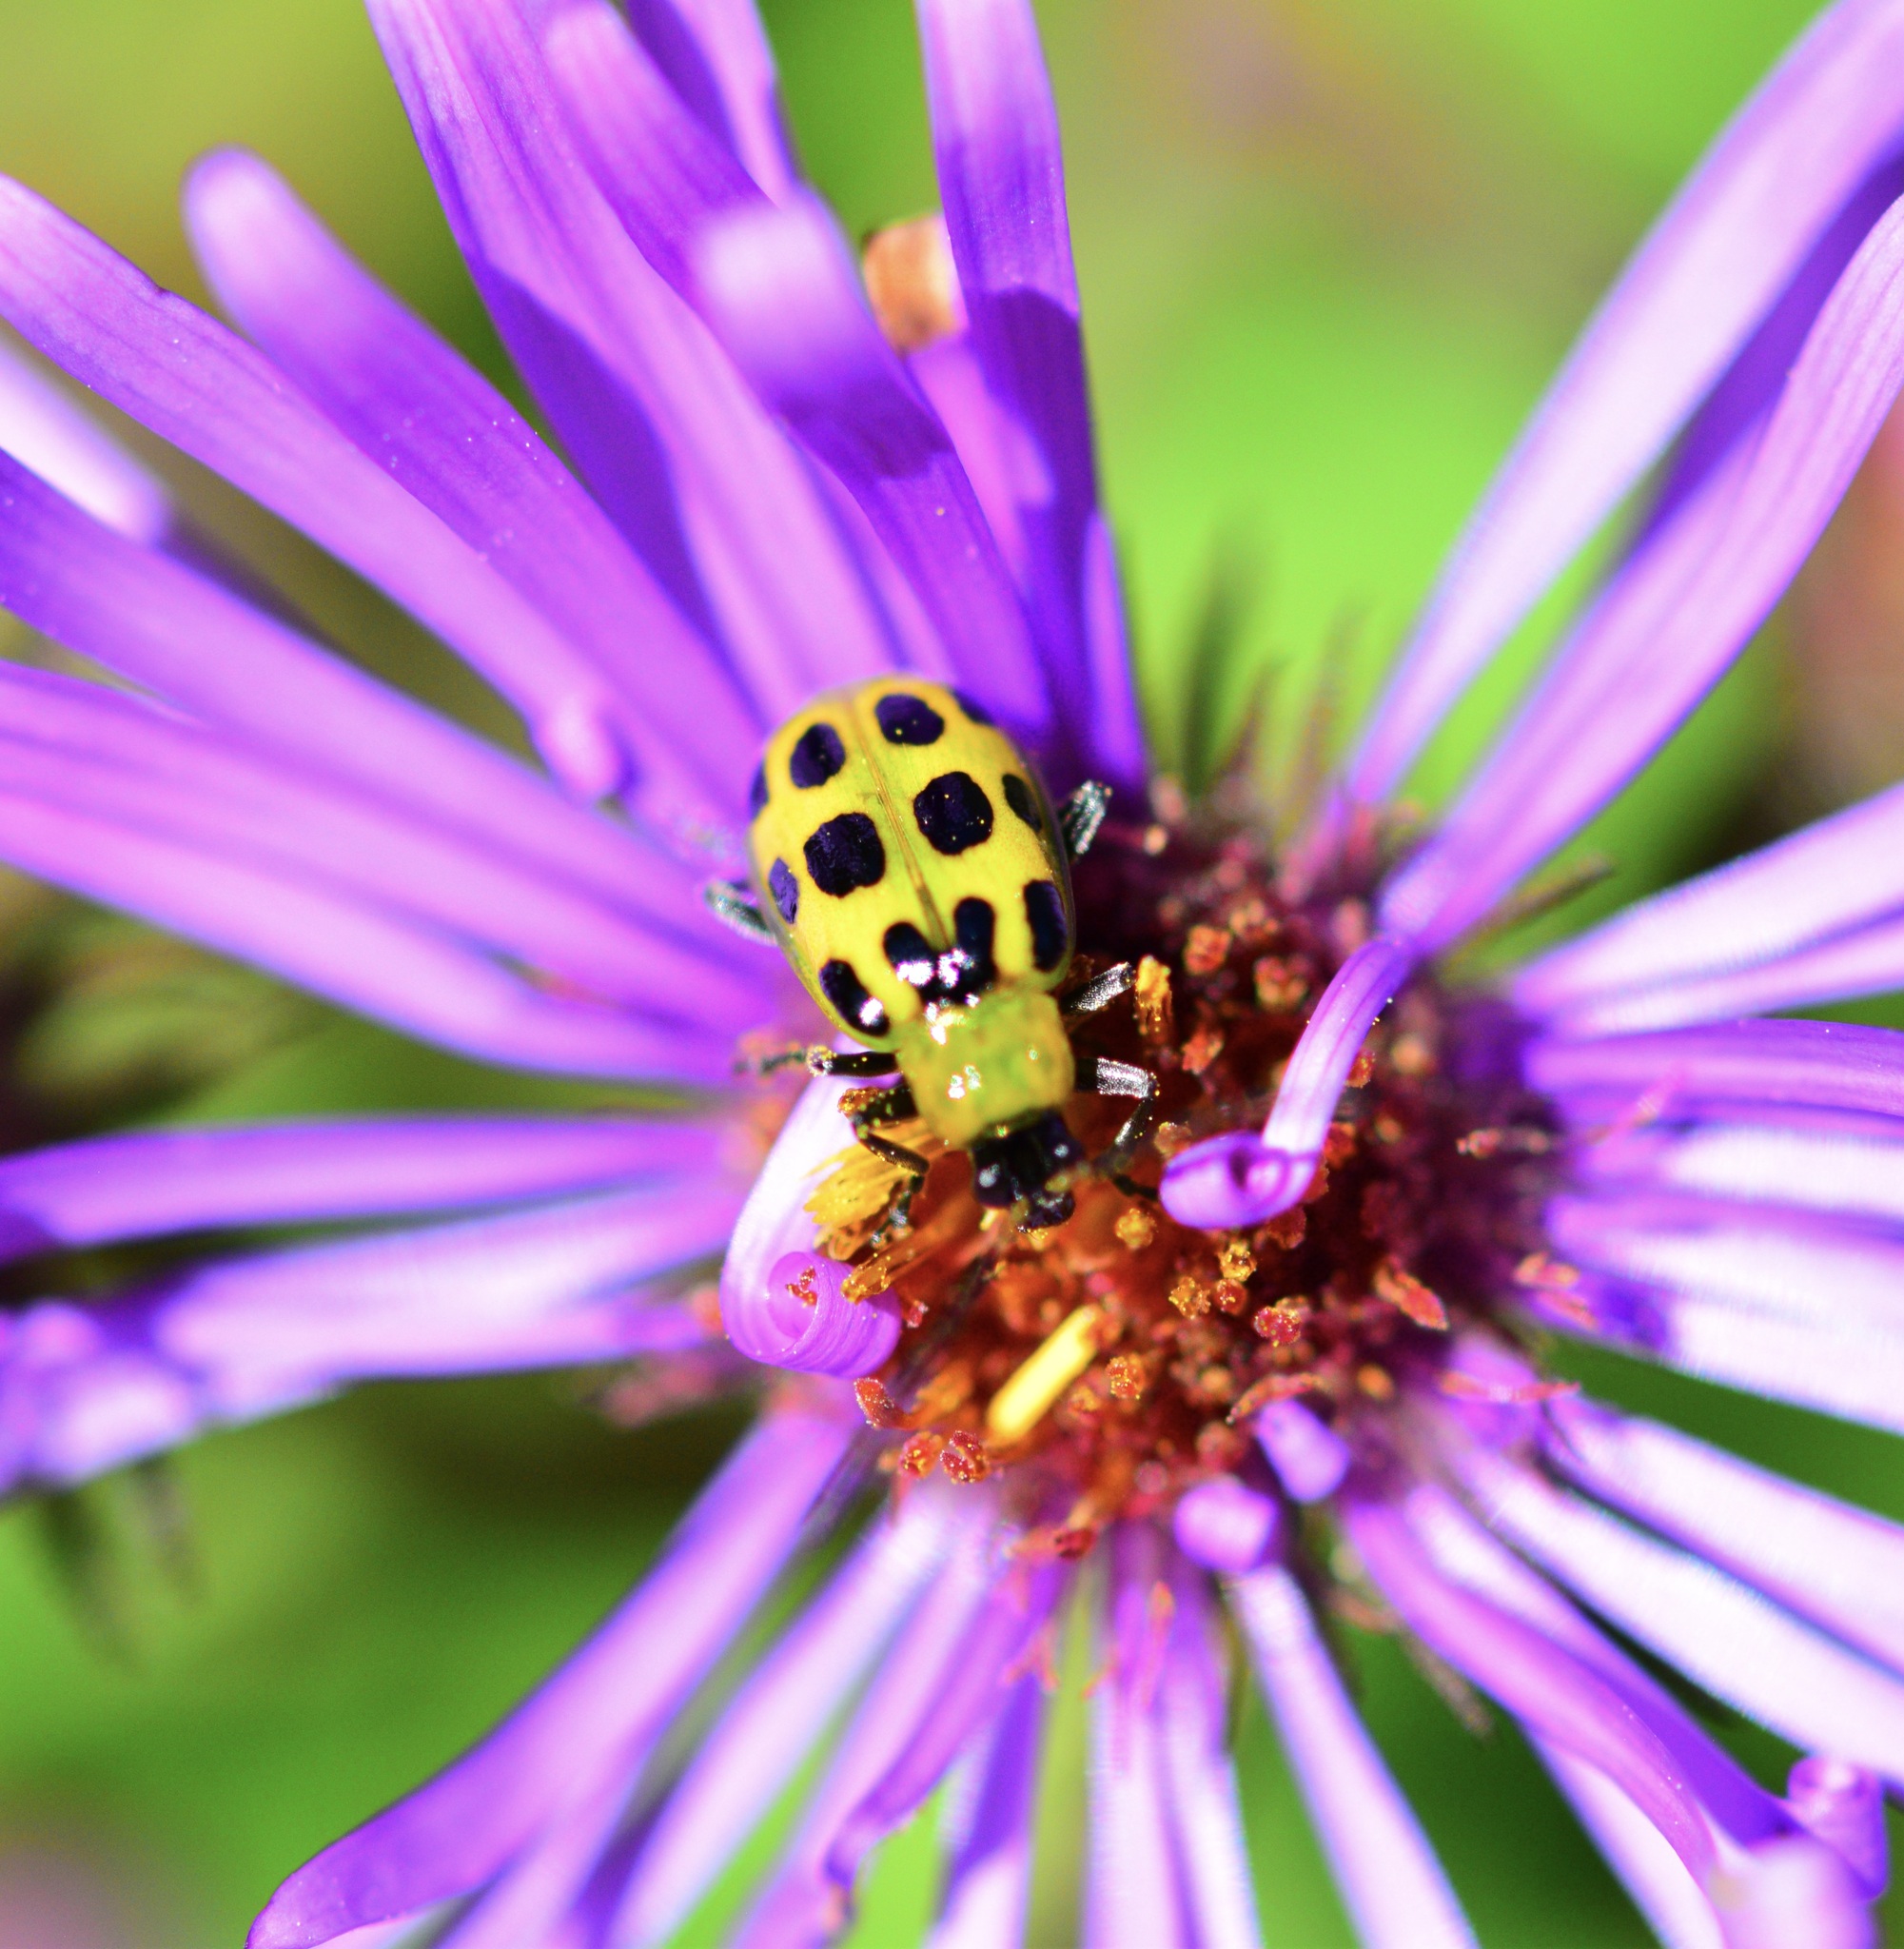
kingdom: Animalia
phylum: Arthropoda
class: Insecta
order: Coleoptera
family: Chrysomelidae
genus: Diabrotica
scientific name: Diabrotica undecimpunctata
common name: Spotted cucumber beetle
